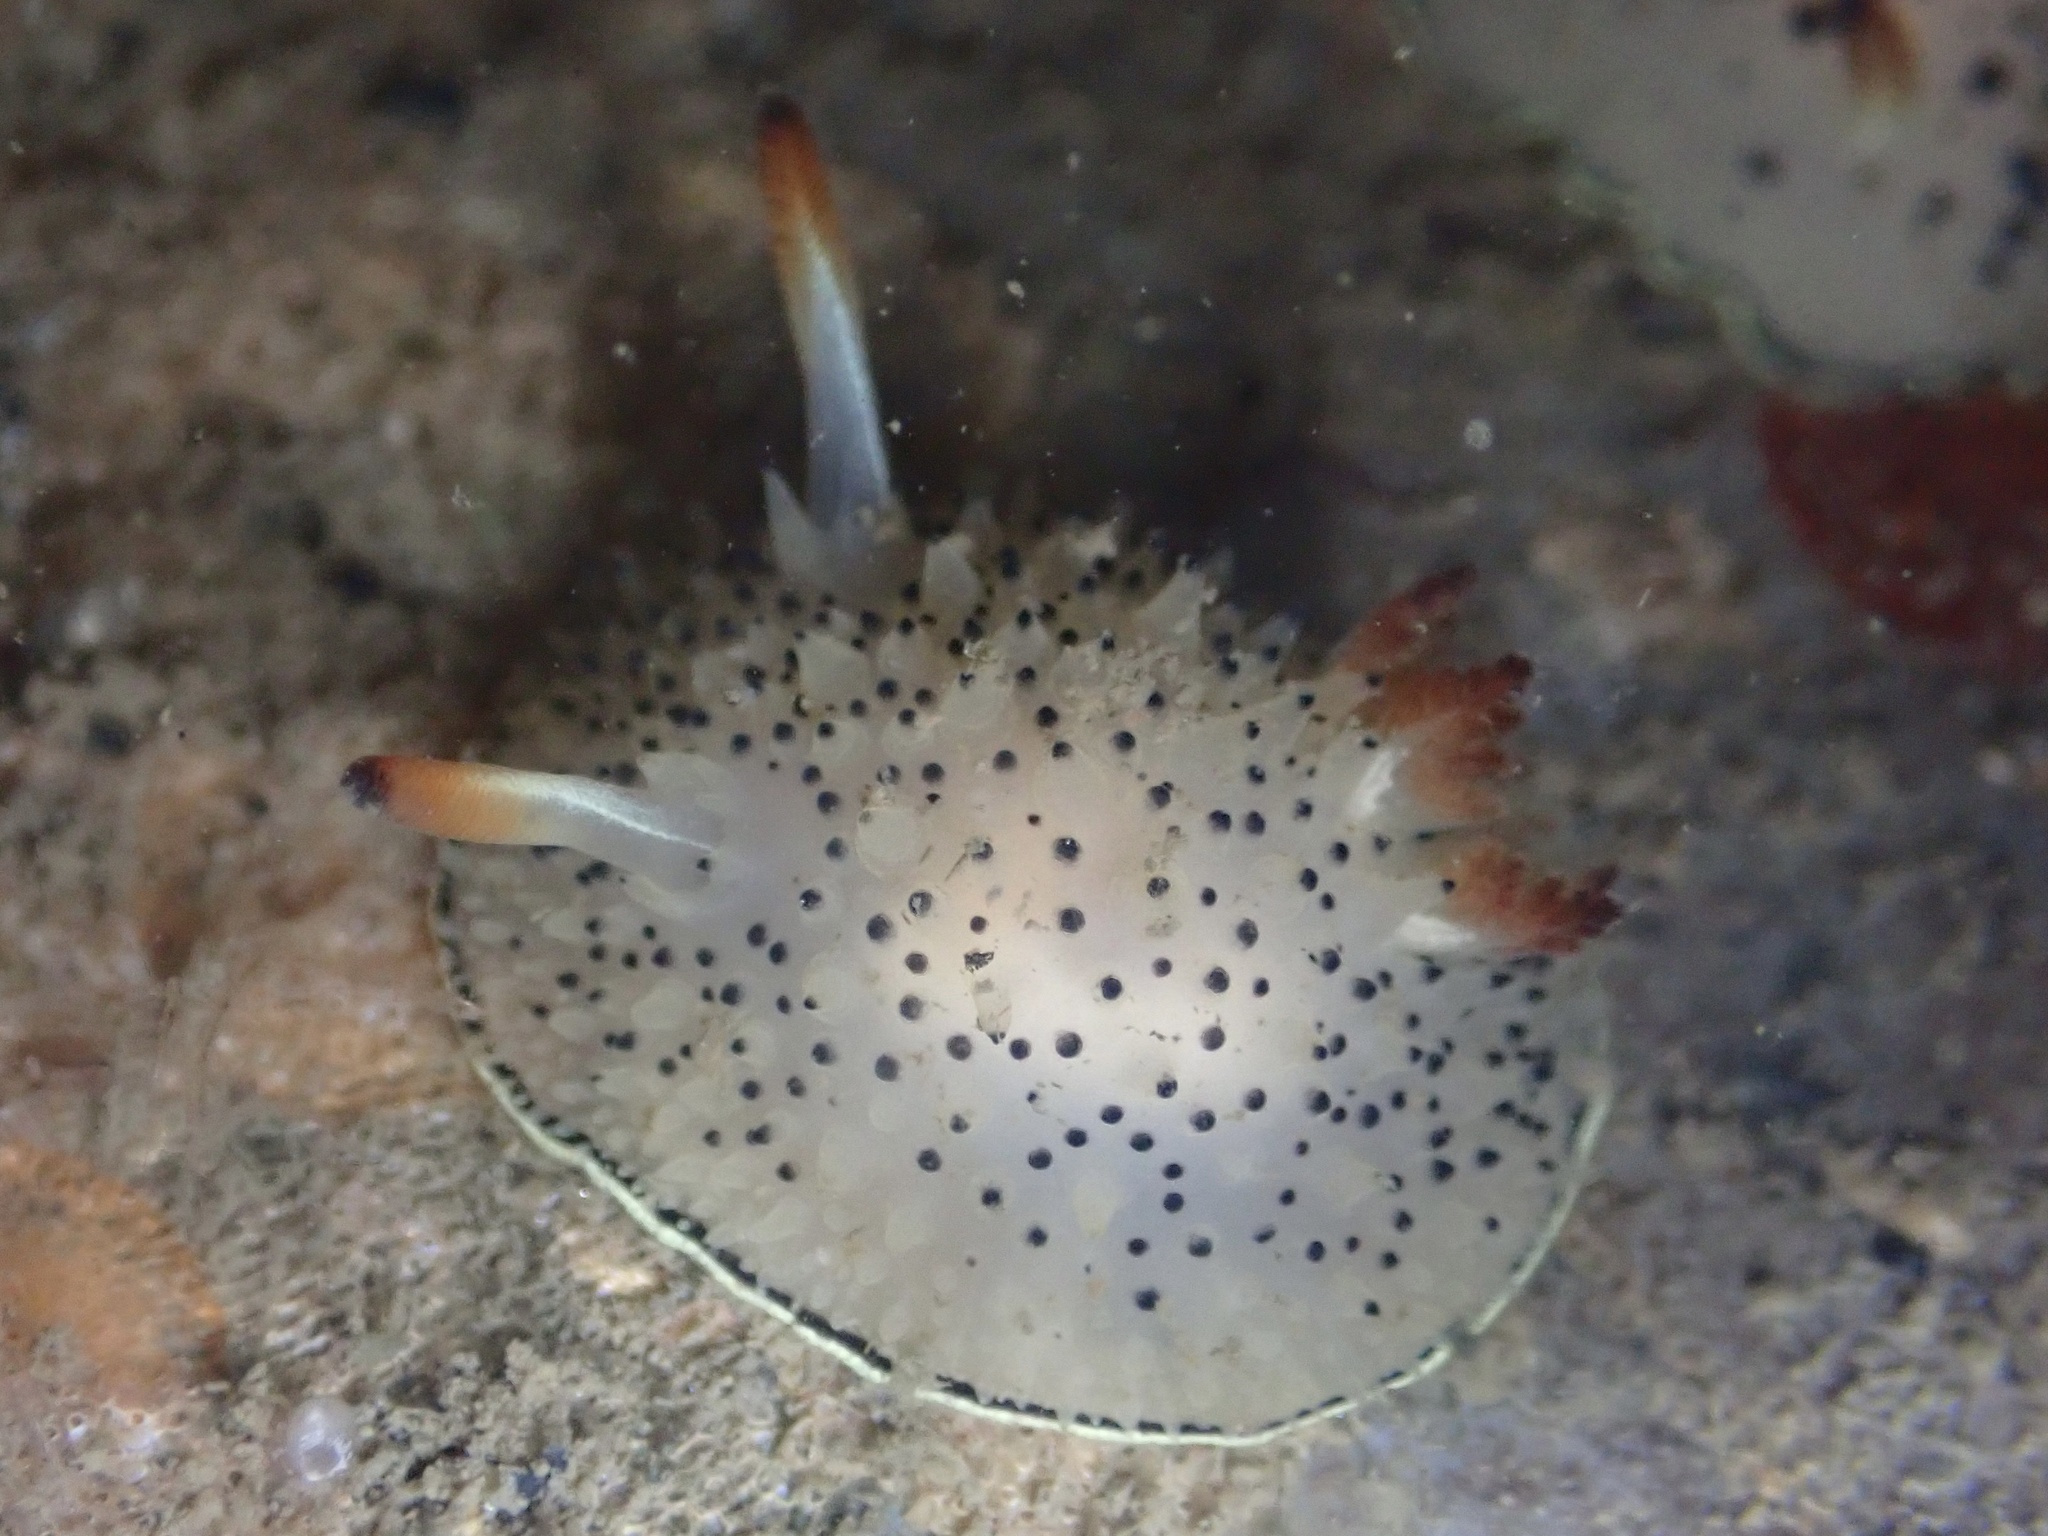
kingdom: Animalia
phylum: Mollusca
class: Gastropoda
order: Nudibranchia
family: Onchidorididae
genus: Acanthodoris
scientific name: Acanthodoris rhodoceras
